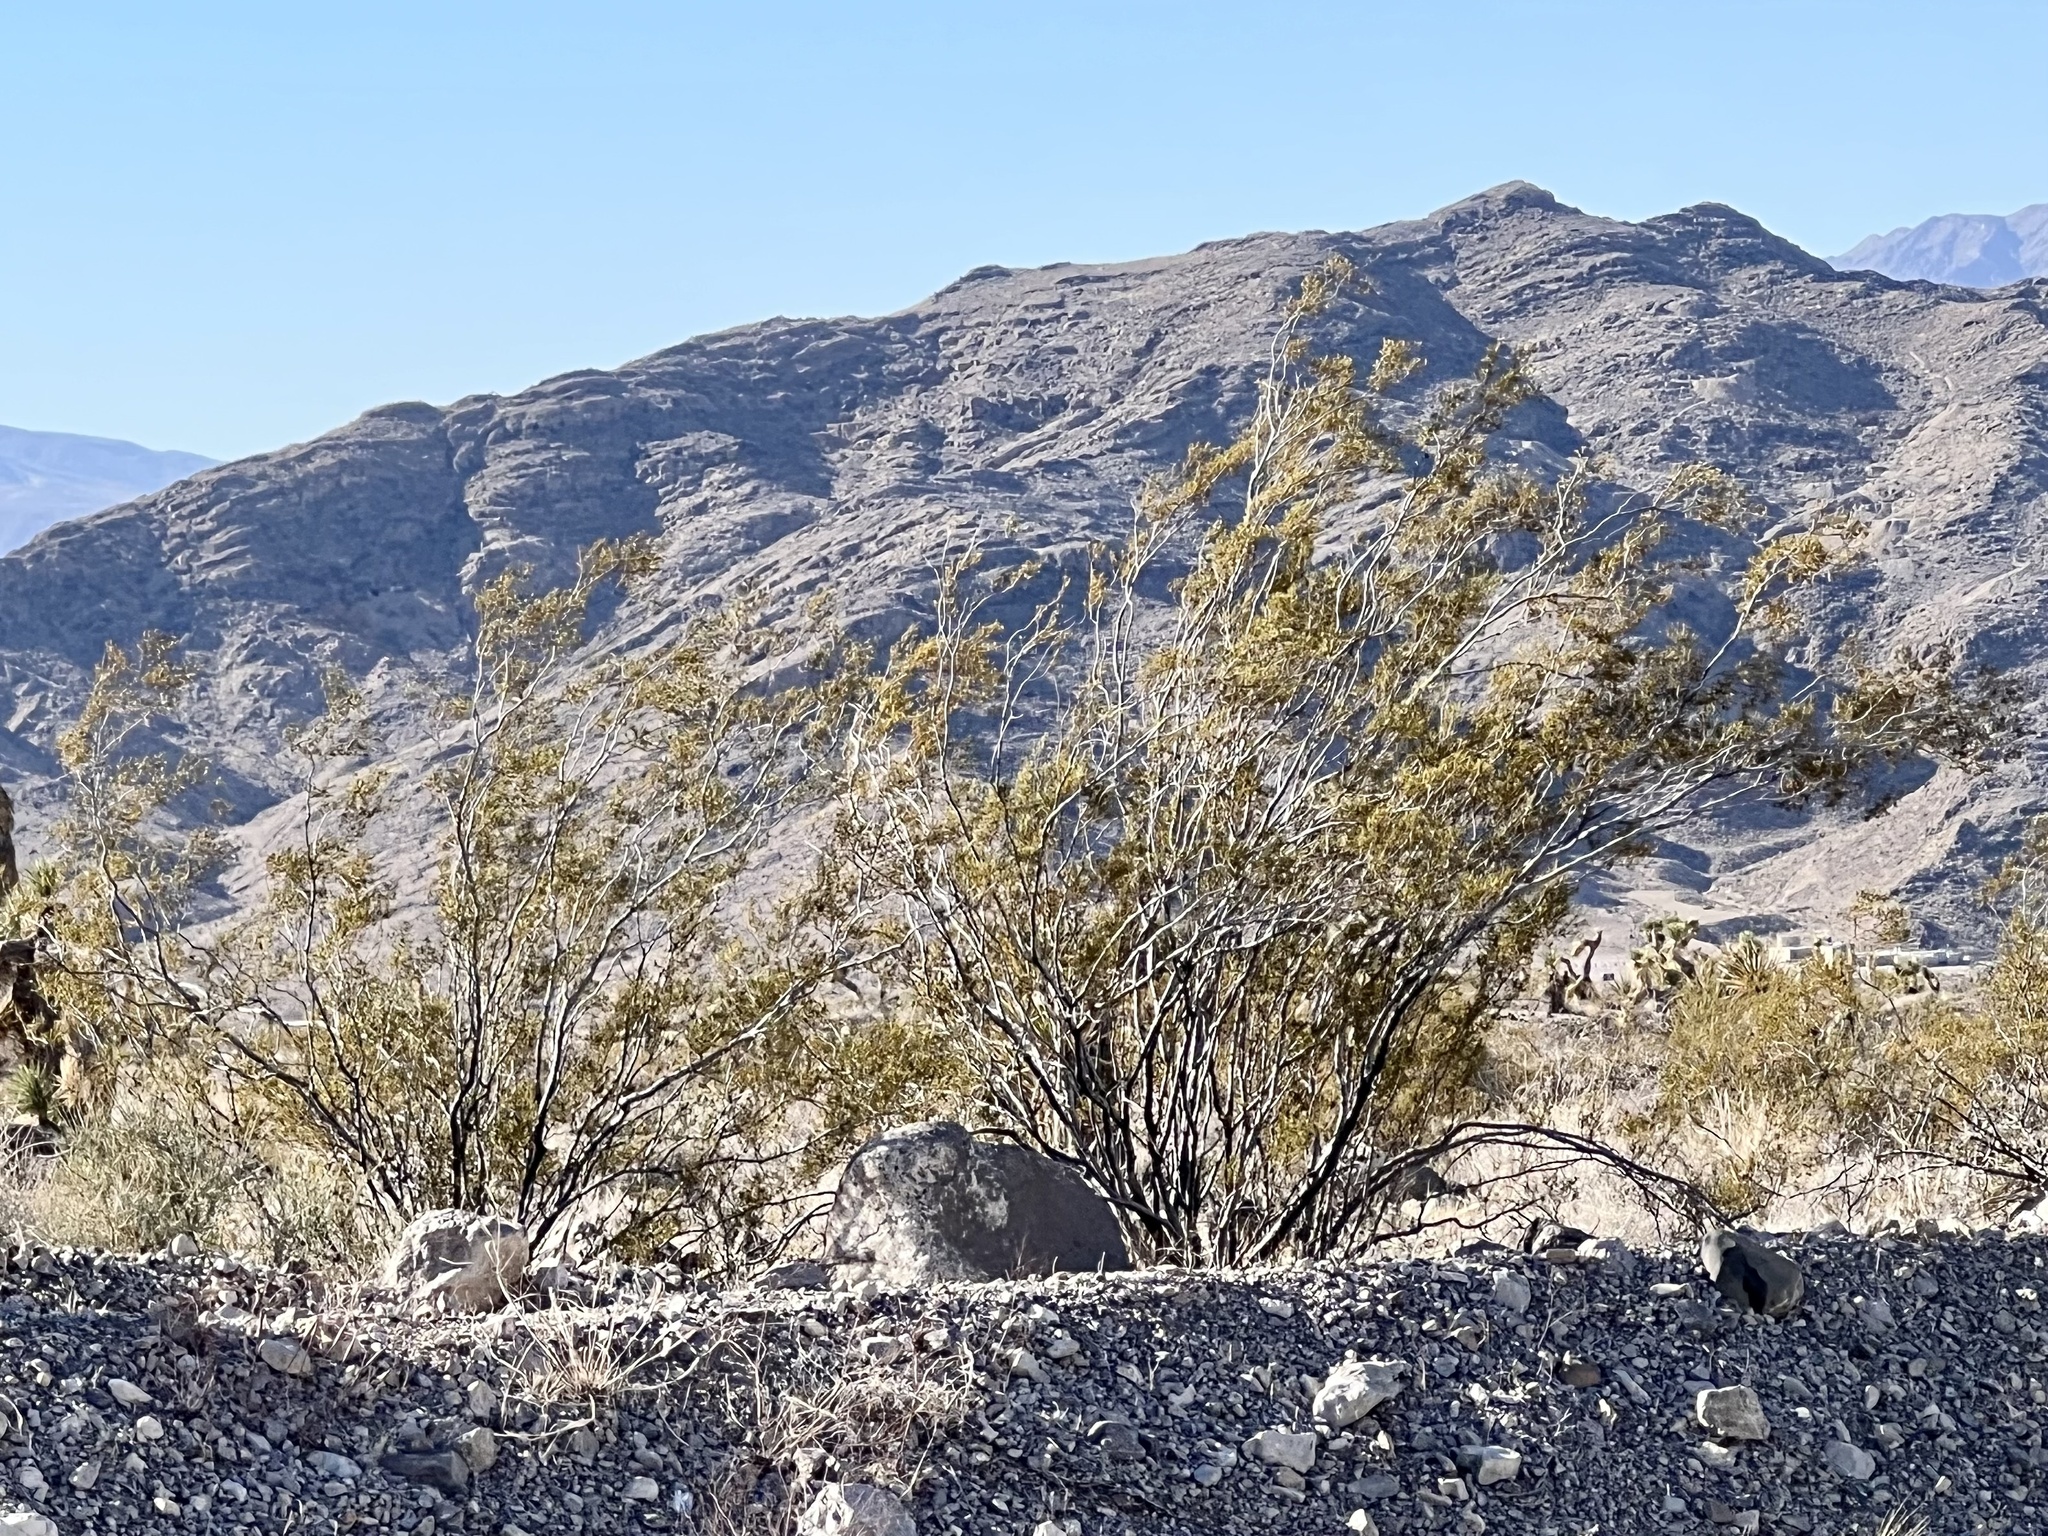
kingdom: Plantae
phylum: Tracheophyta
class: Magnoliopsida
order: Zygophyllales
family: Zygophyllaceae
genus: Larrea
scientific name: Larrea tridentata
